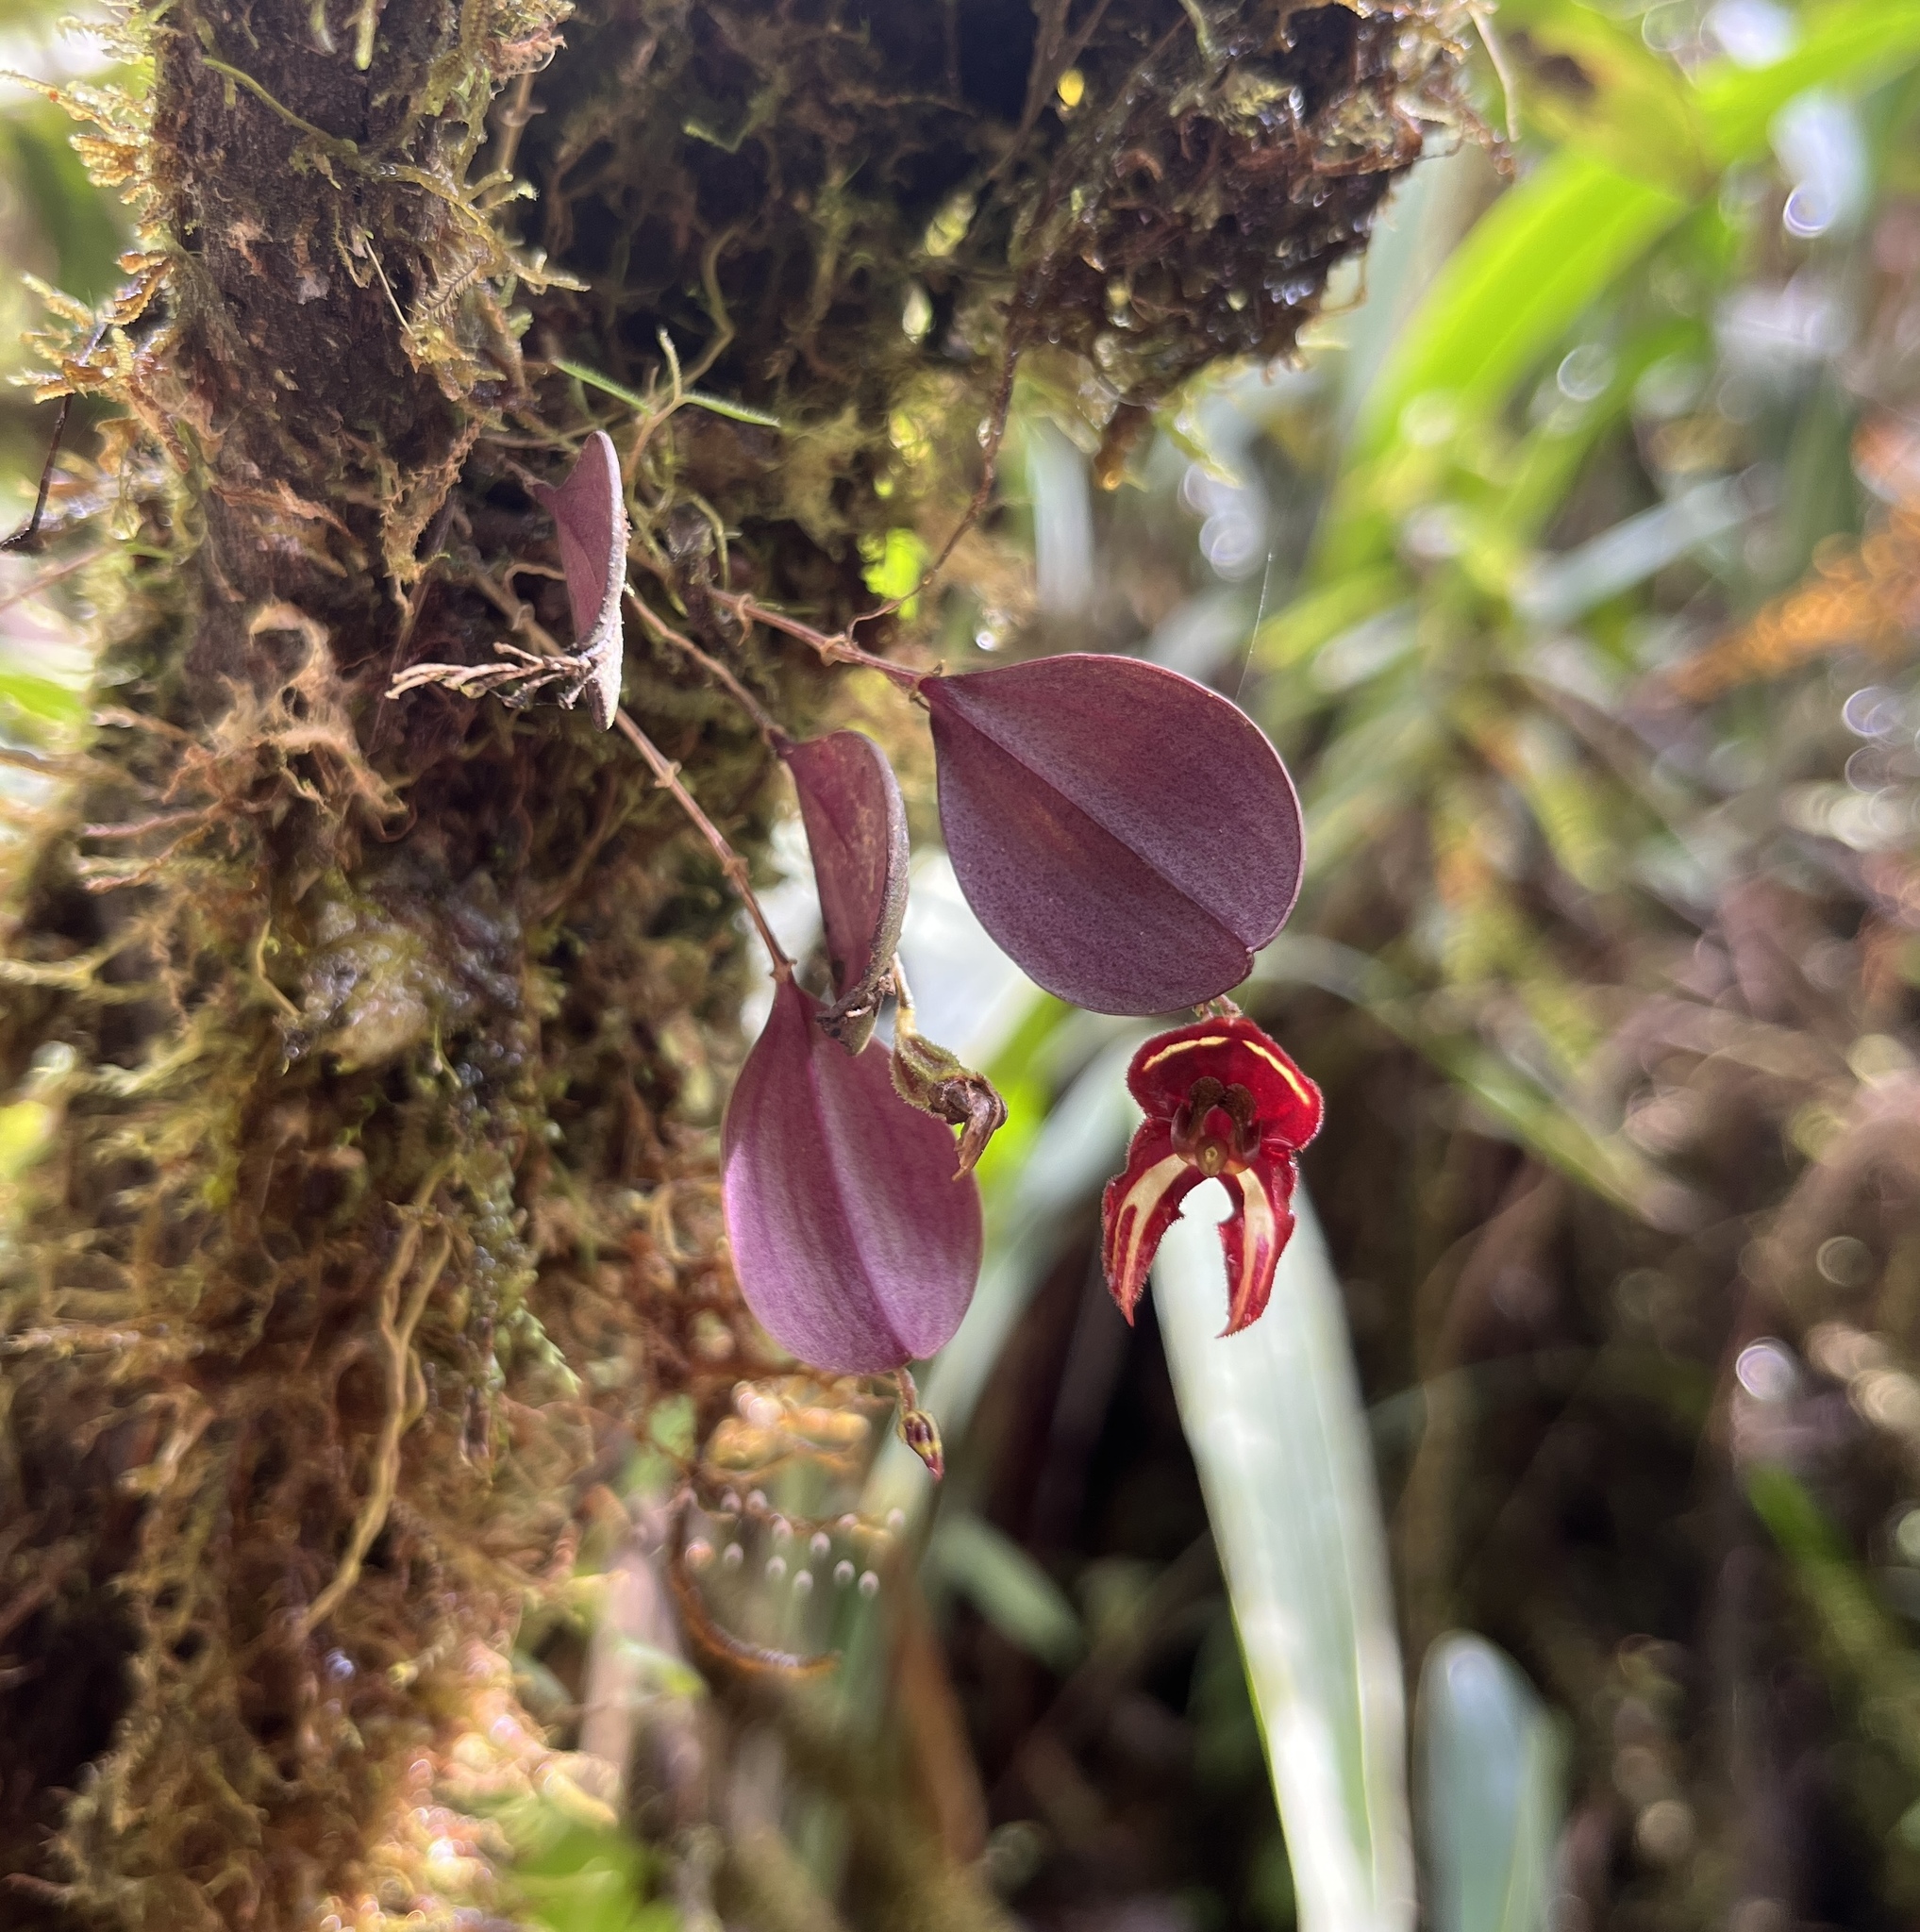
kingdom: Plantae
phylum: Tracheophyta
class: Liliopsida
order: Asparagales
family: Orchidaceae
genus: Lepanthes
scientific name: Lepanthes carunculigera
